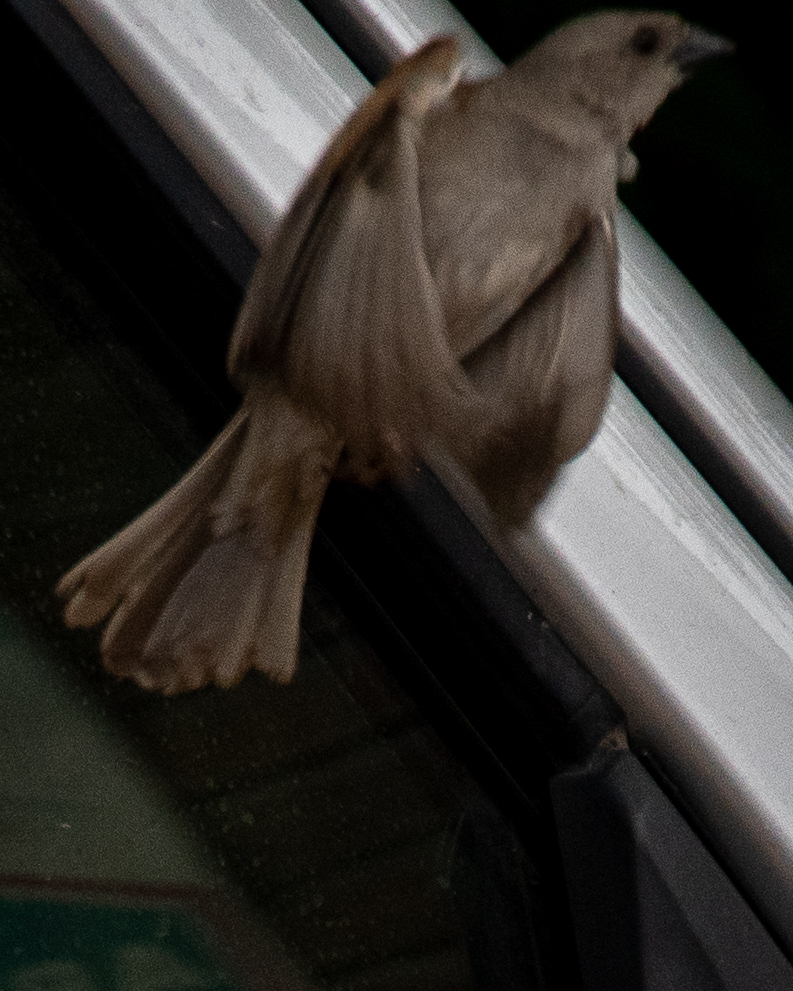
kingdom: Animalia
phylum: Chordata
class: Aves
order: Passeriformes
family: Passeridae
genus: Passer
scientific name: Passer diffusus
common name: Southern grey-headed sparrow
